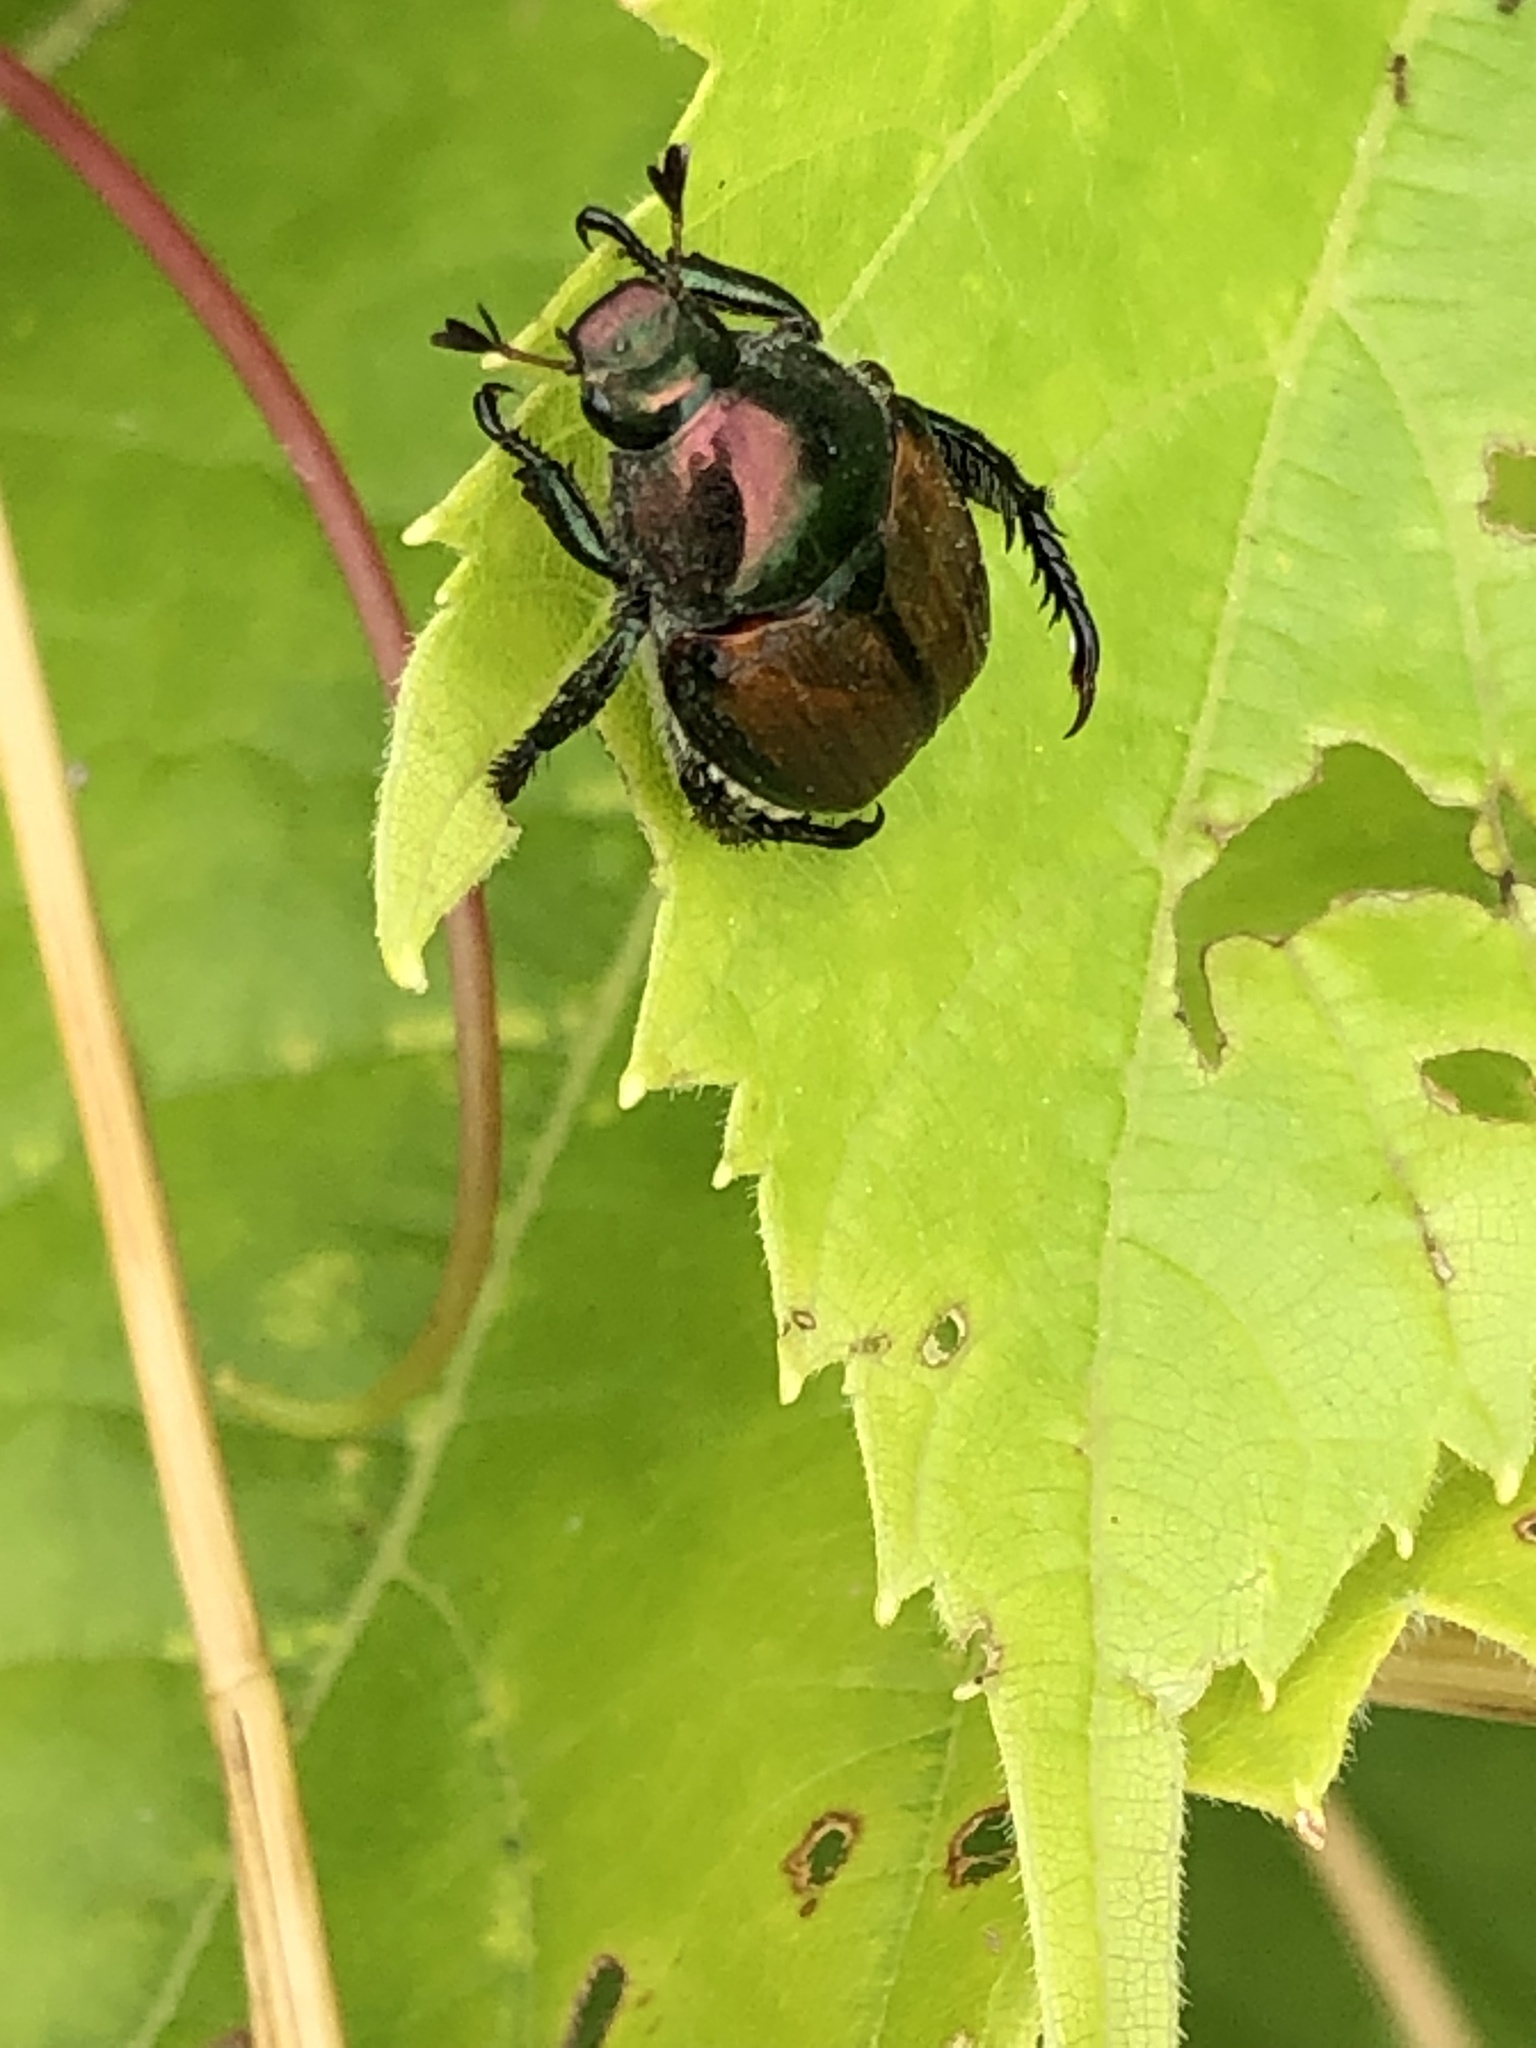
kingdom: Animalia
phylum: Arthropoda
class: Insecta
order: Coleoptera
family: Scarabaeidae
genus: Popillia
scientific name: Popillia japonica
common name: Japanese beetle
